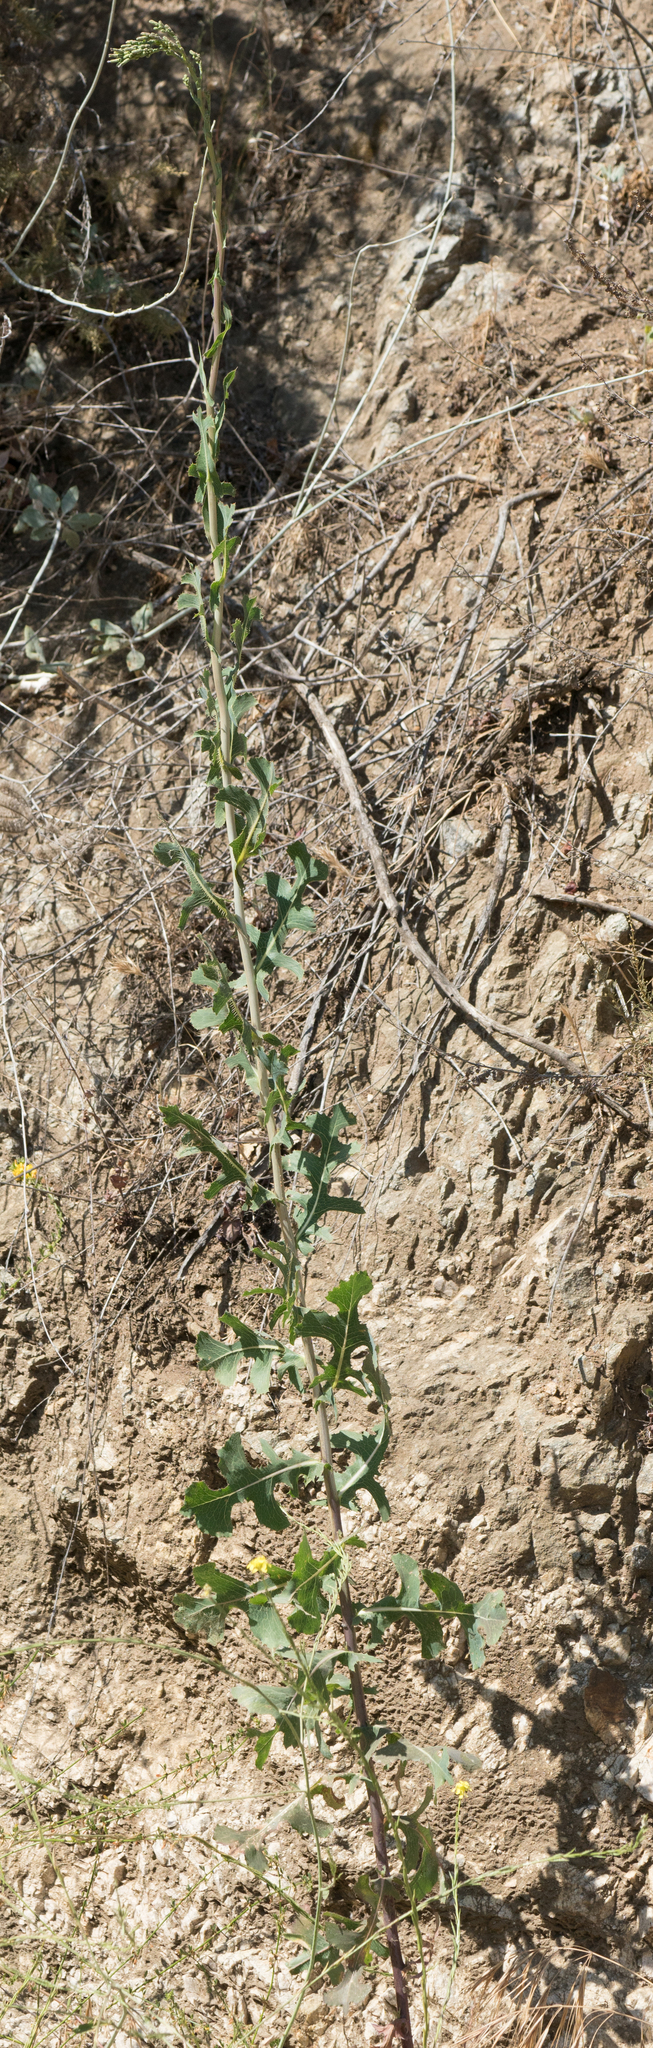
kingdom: Plantae
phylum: Tracheophyta
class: Magnoliopsida
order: Asterales
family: Asteraceae
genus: Lactuca
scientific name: Lactuca serriola
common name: Prickly lettuce
